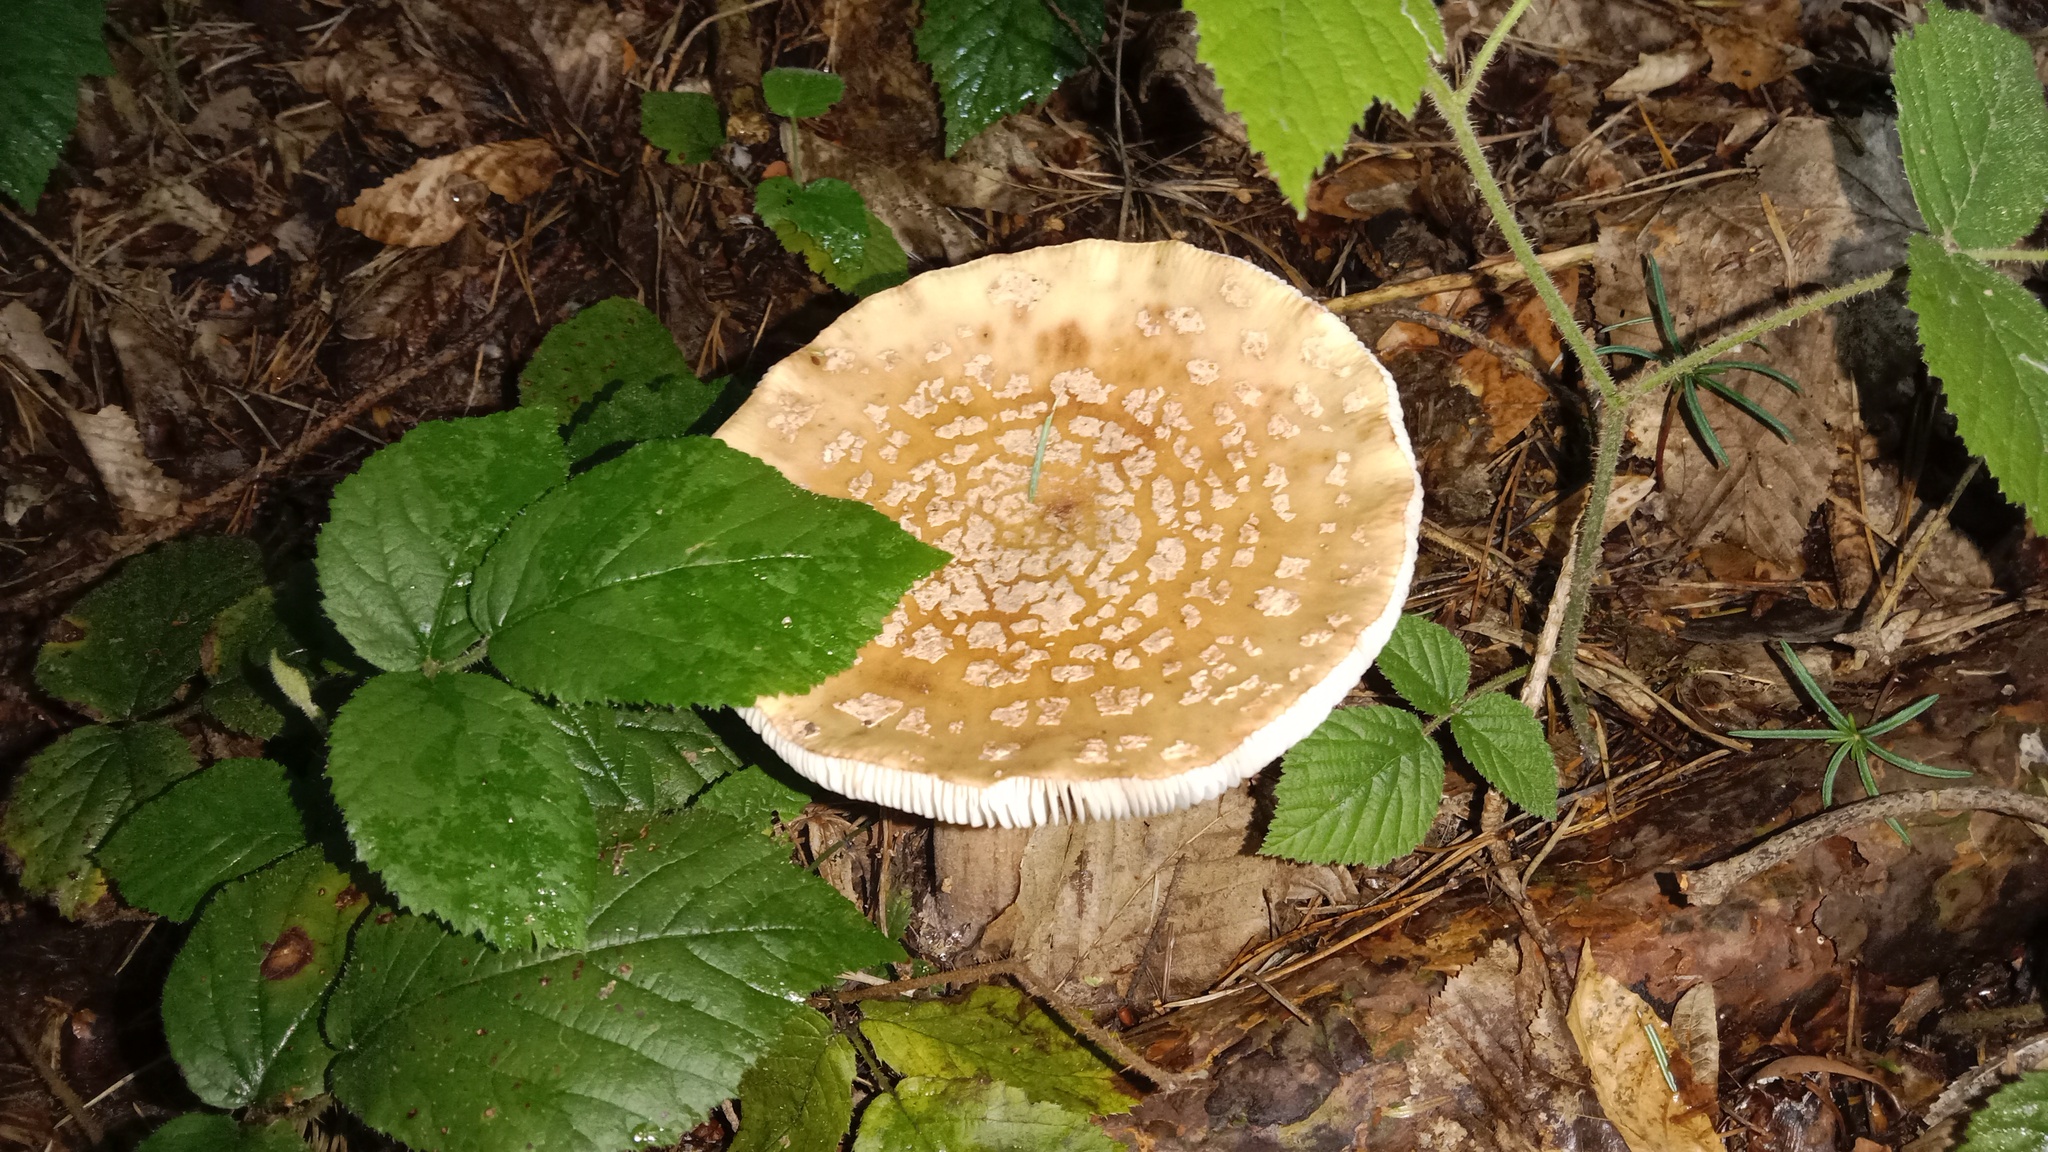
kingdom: Fungi
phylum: Basidiomycota
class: Agaricomycetes
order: Agaricales
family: Amanitaceae
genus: Amanita
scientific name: Amanita rubescens
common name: Blusher
